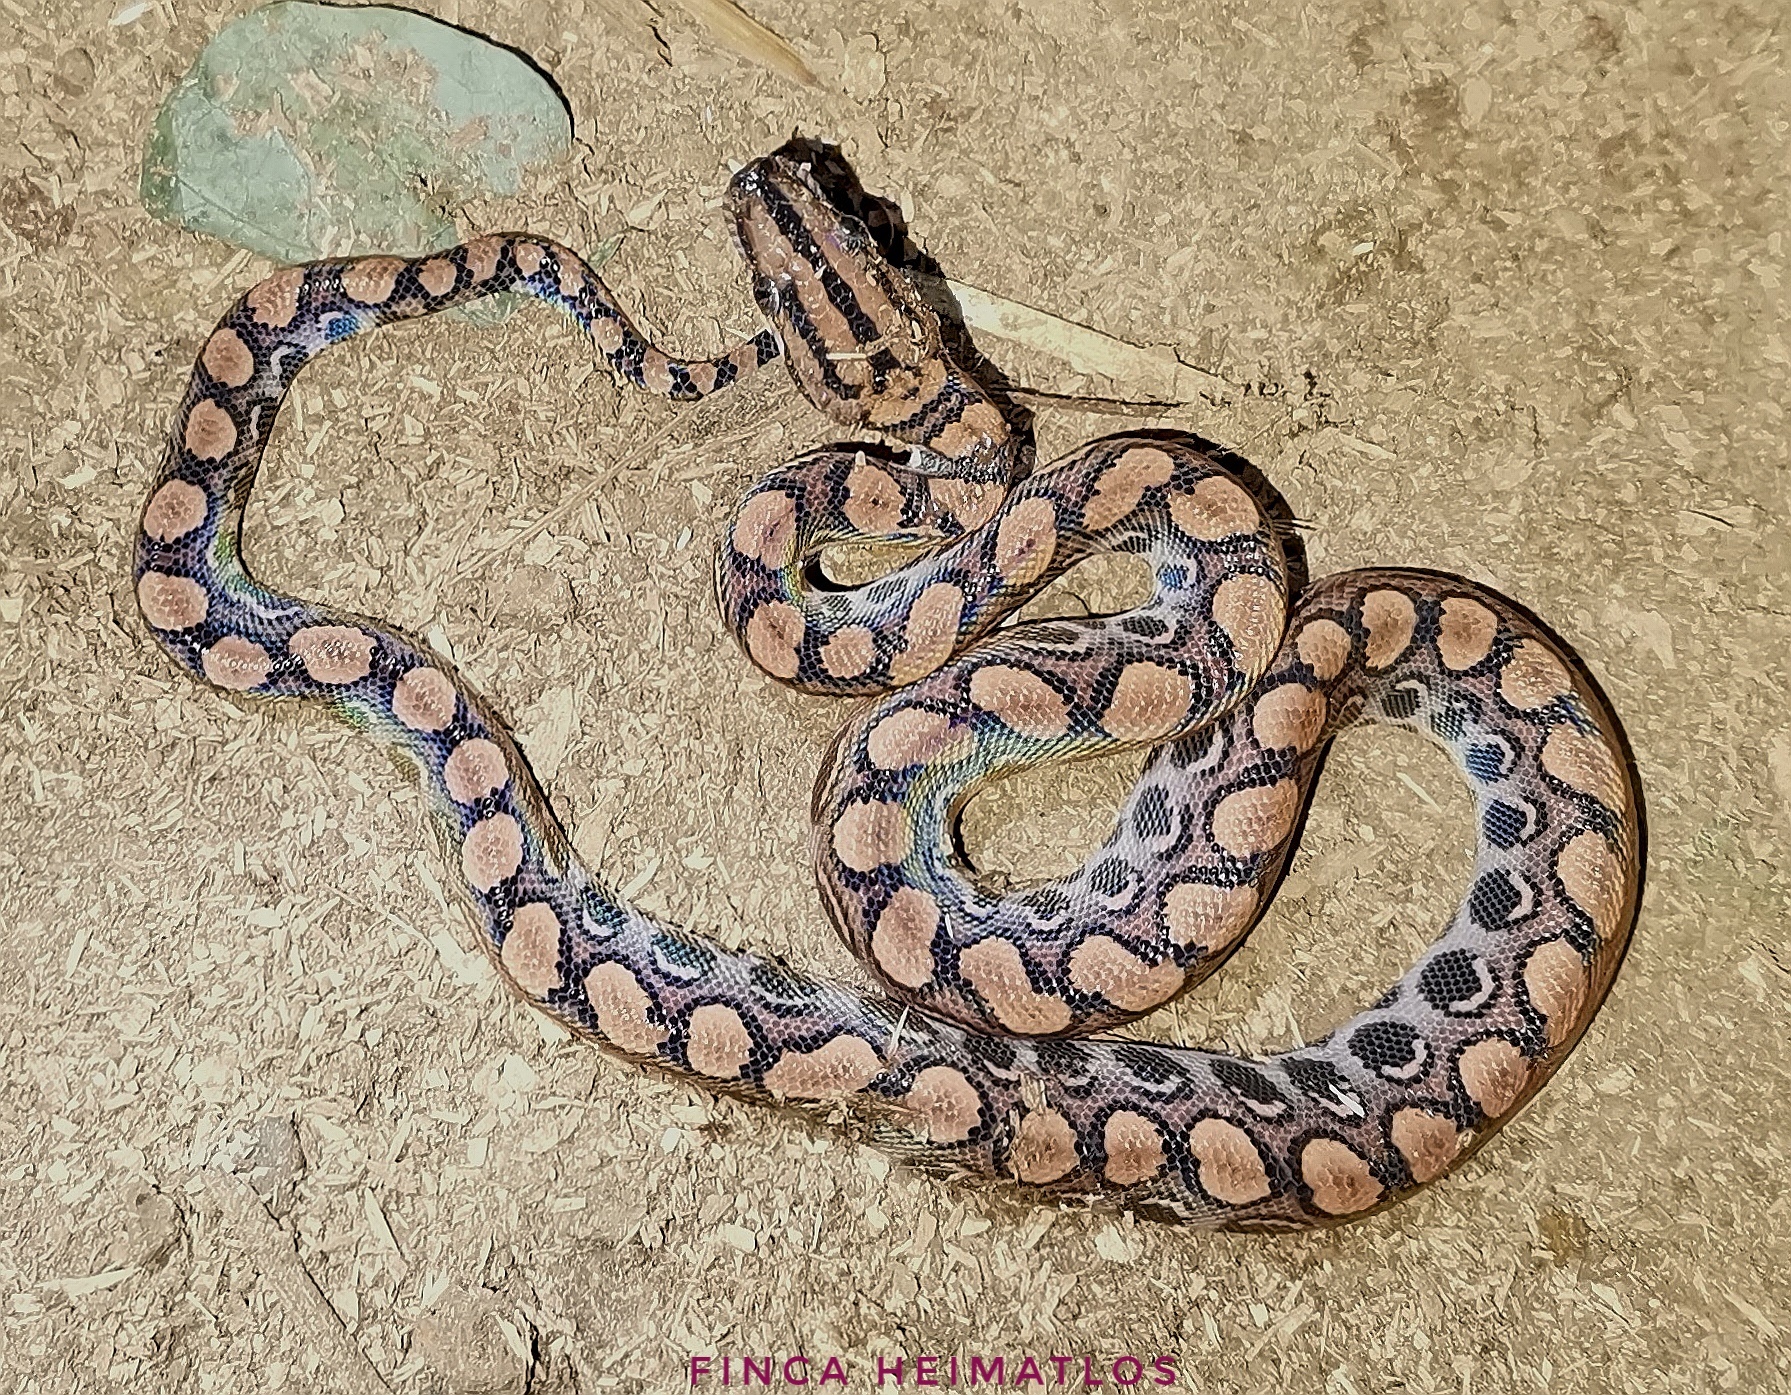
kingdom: Animalia
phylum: Chordata
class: Squamata
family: Boidae
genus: Epicrates
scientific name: Epicrates cenchria
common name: Rainbow boa
